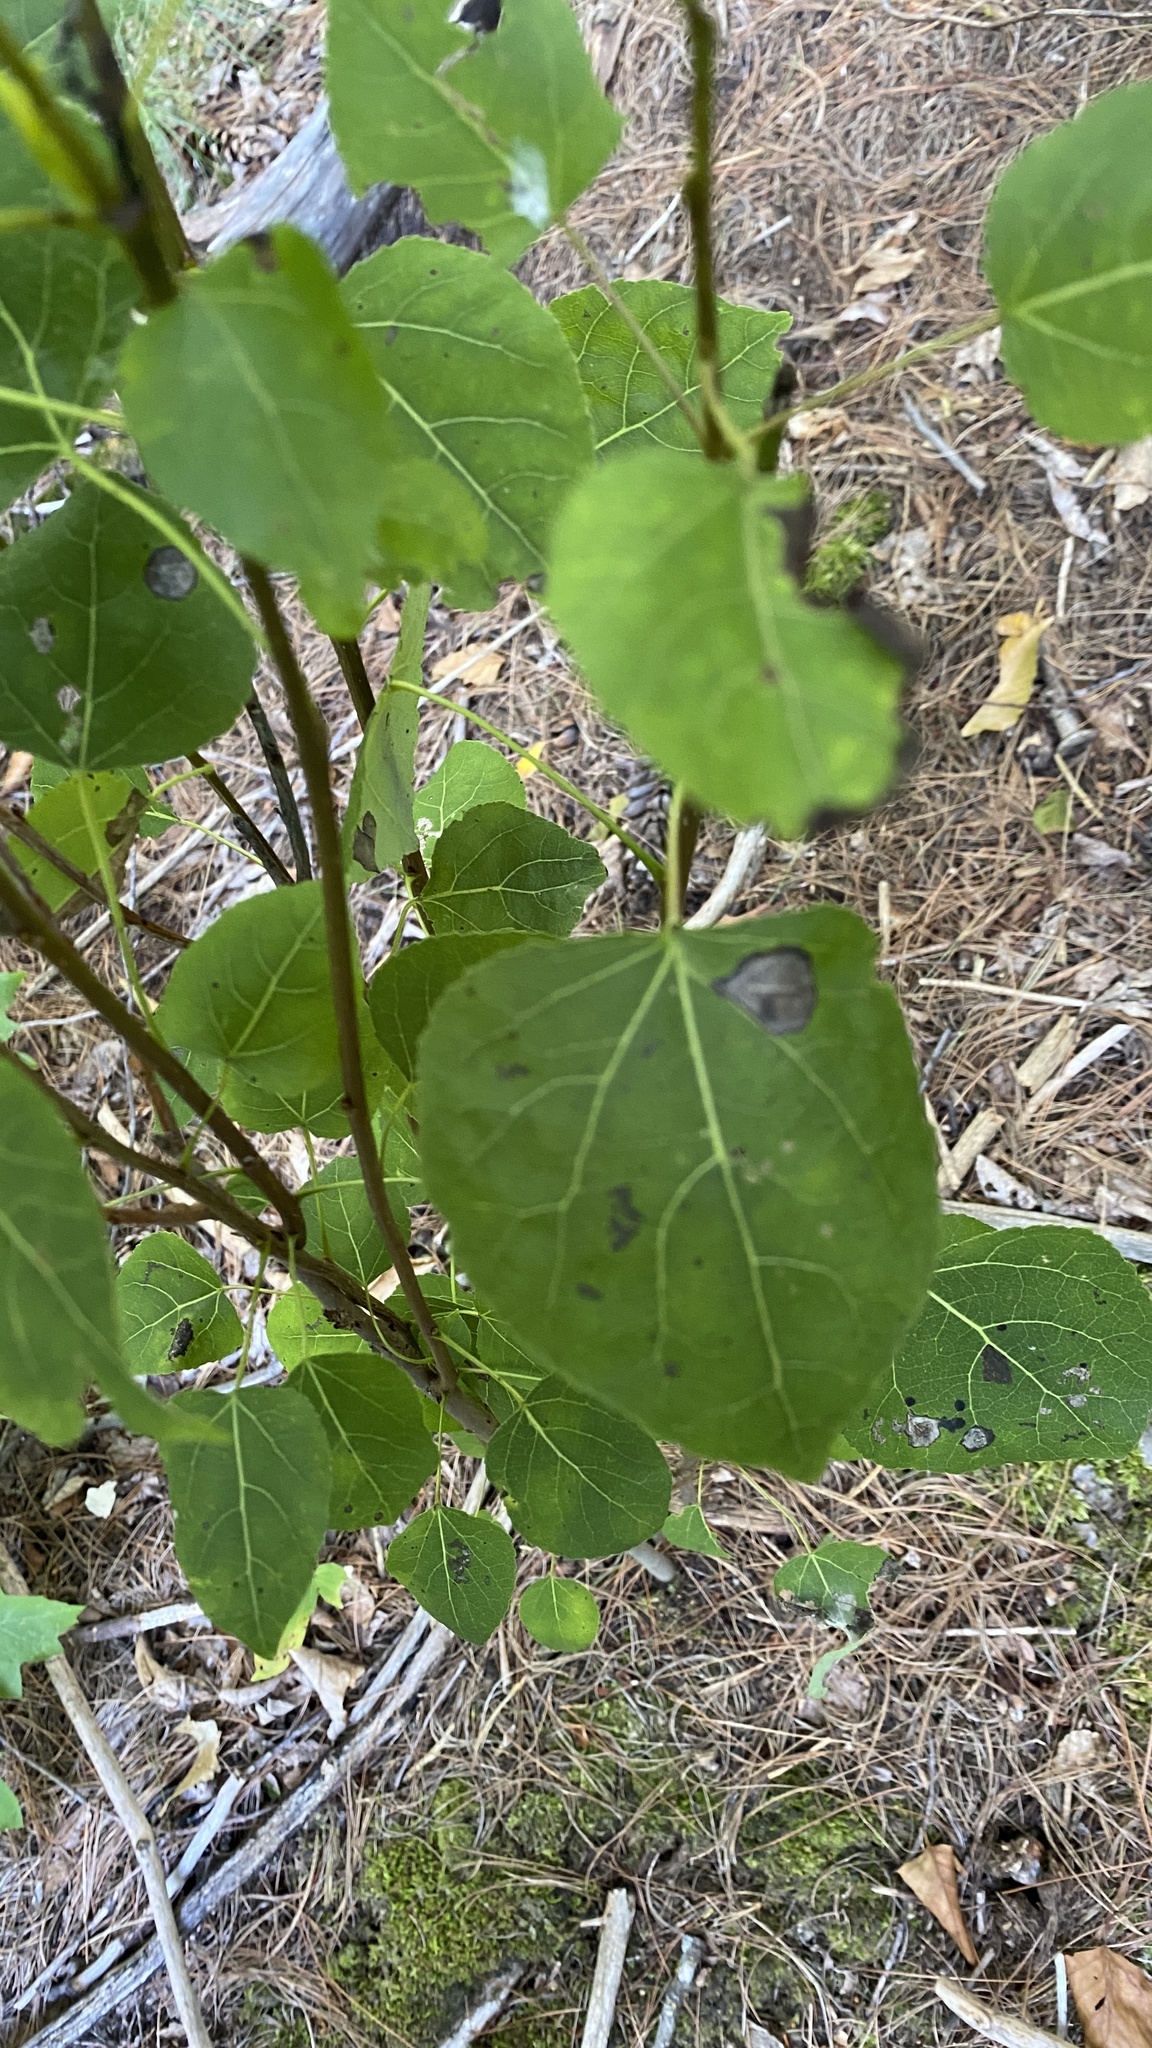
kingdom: Plantae
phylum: Tracheophyta
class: Magnoliopsida
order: Malpighiales
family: Salicaceae
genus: Populus
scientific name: Populus tremuloides
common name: Quaking aspen
